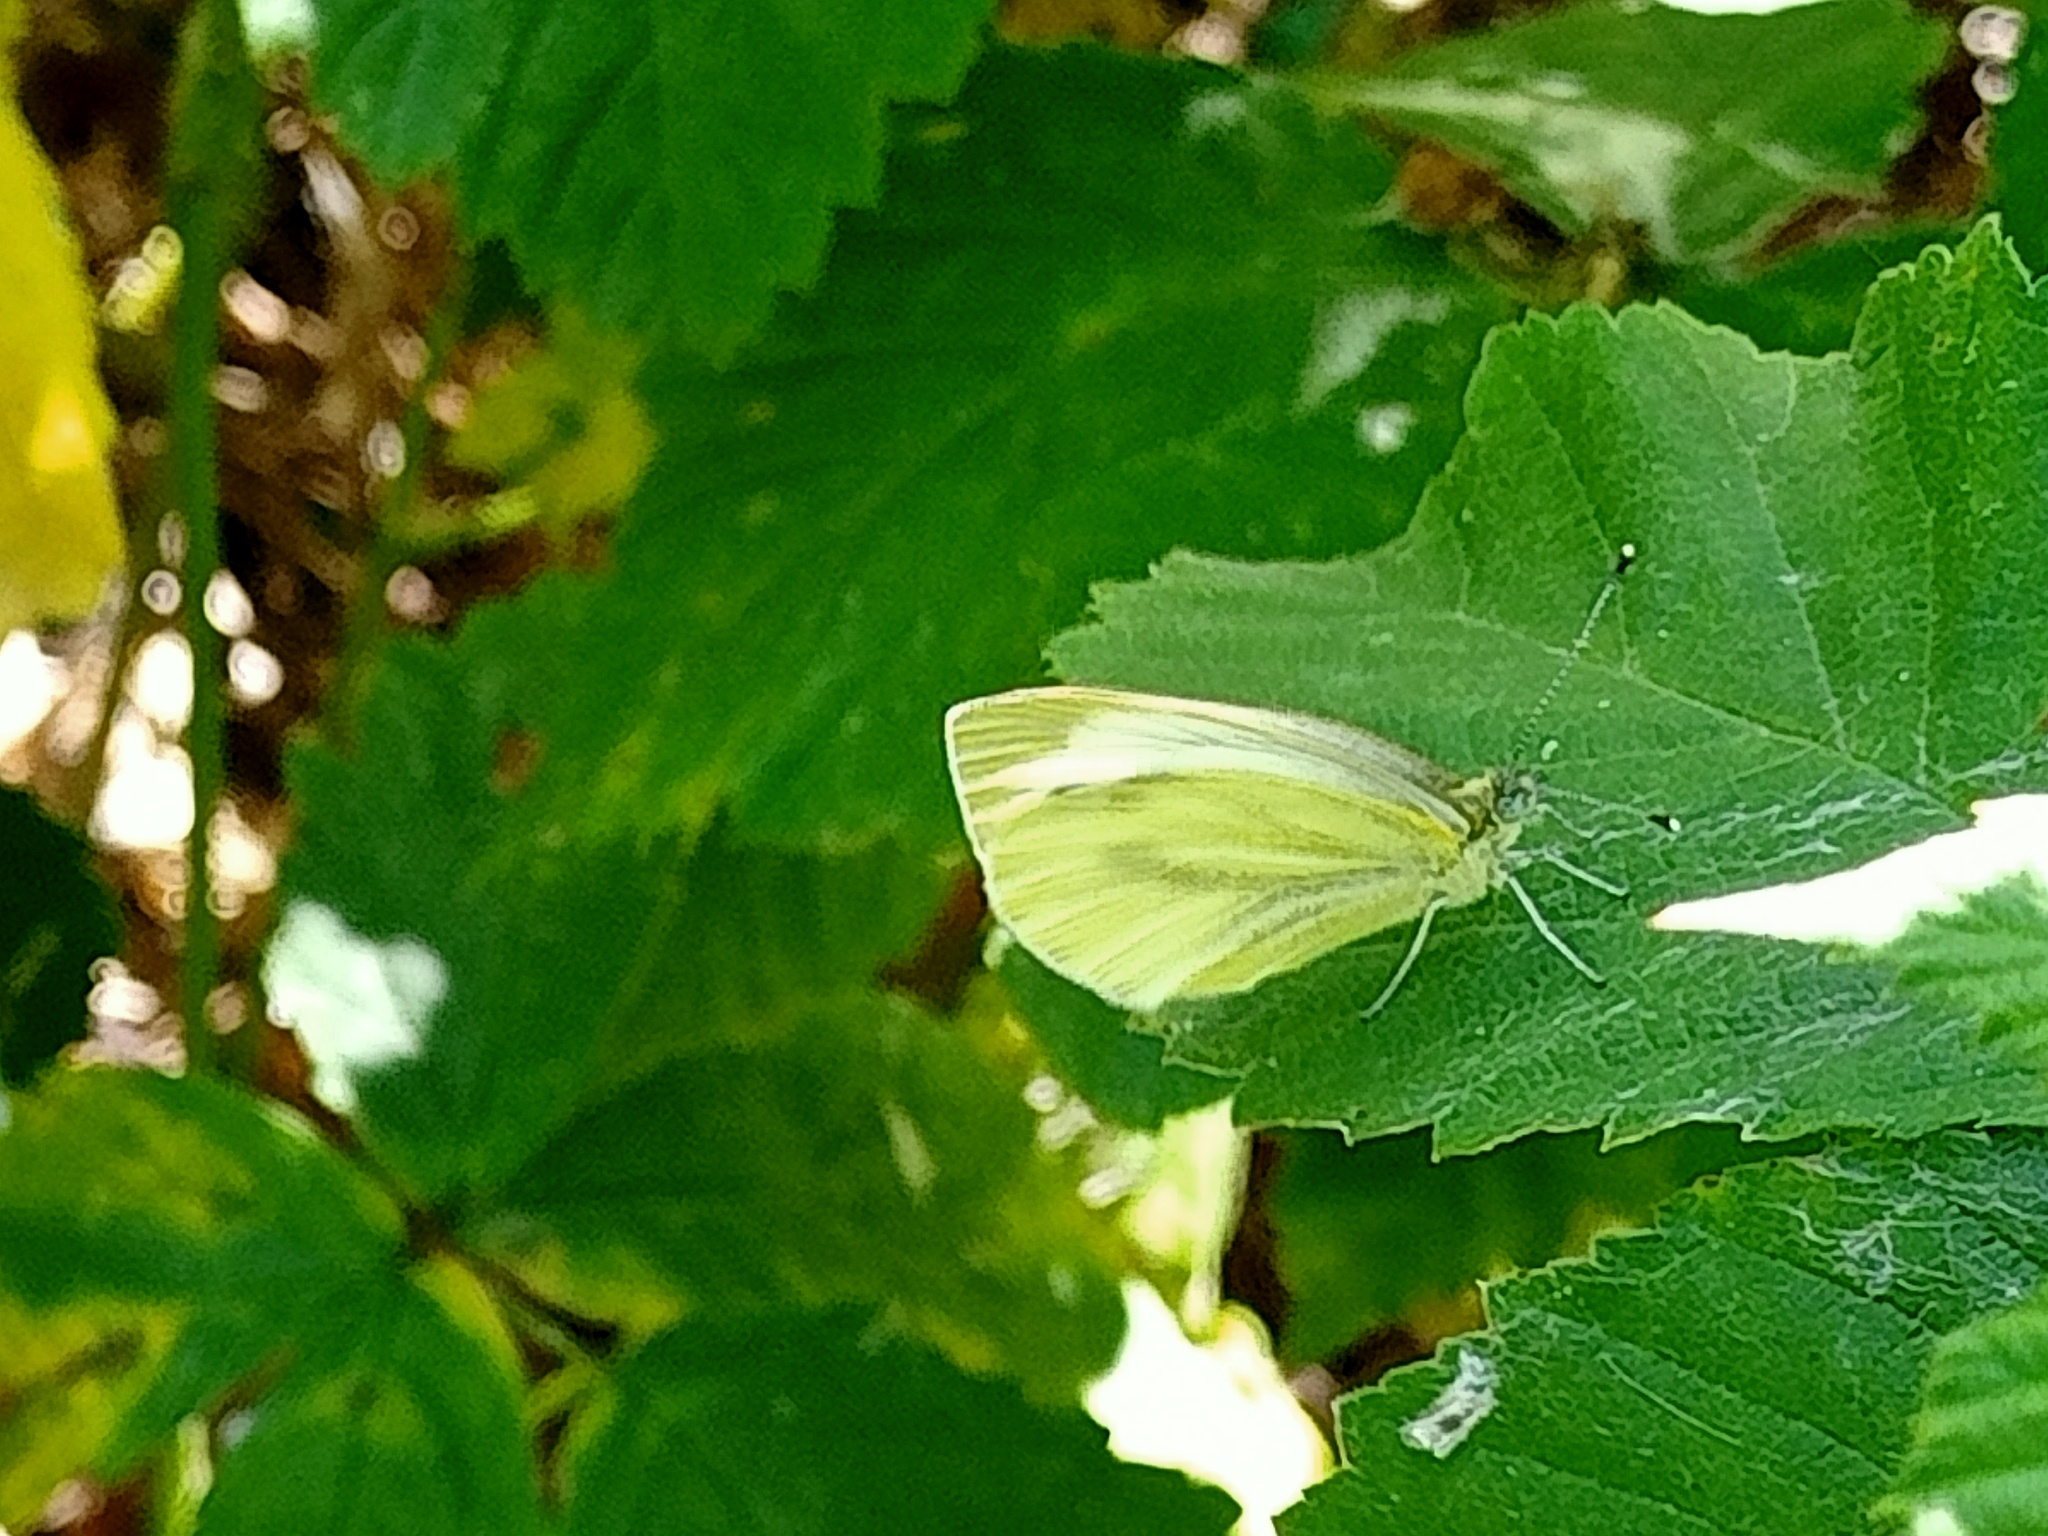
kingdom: Animalia
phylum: Arthropoda
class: Insecta
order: Lepidoptera
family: Pieridae
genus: Pieris
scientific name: Pieris napi
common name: Green-veined white
